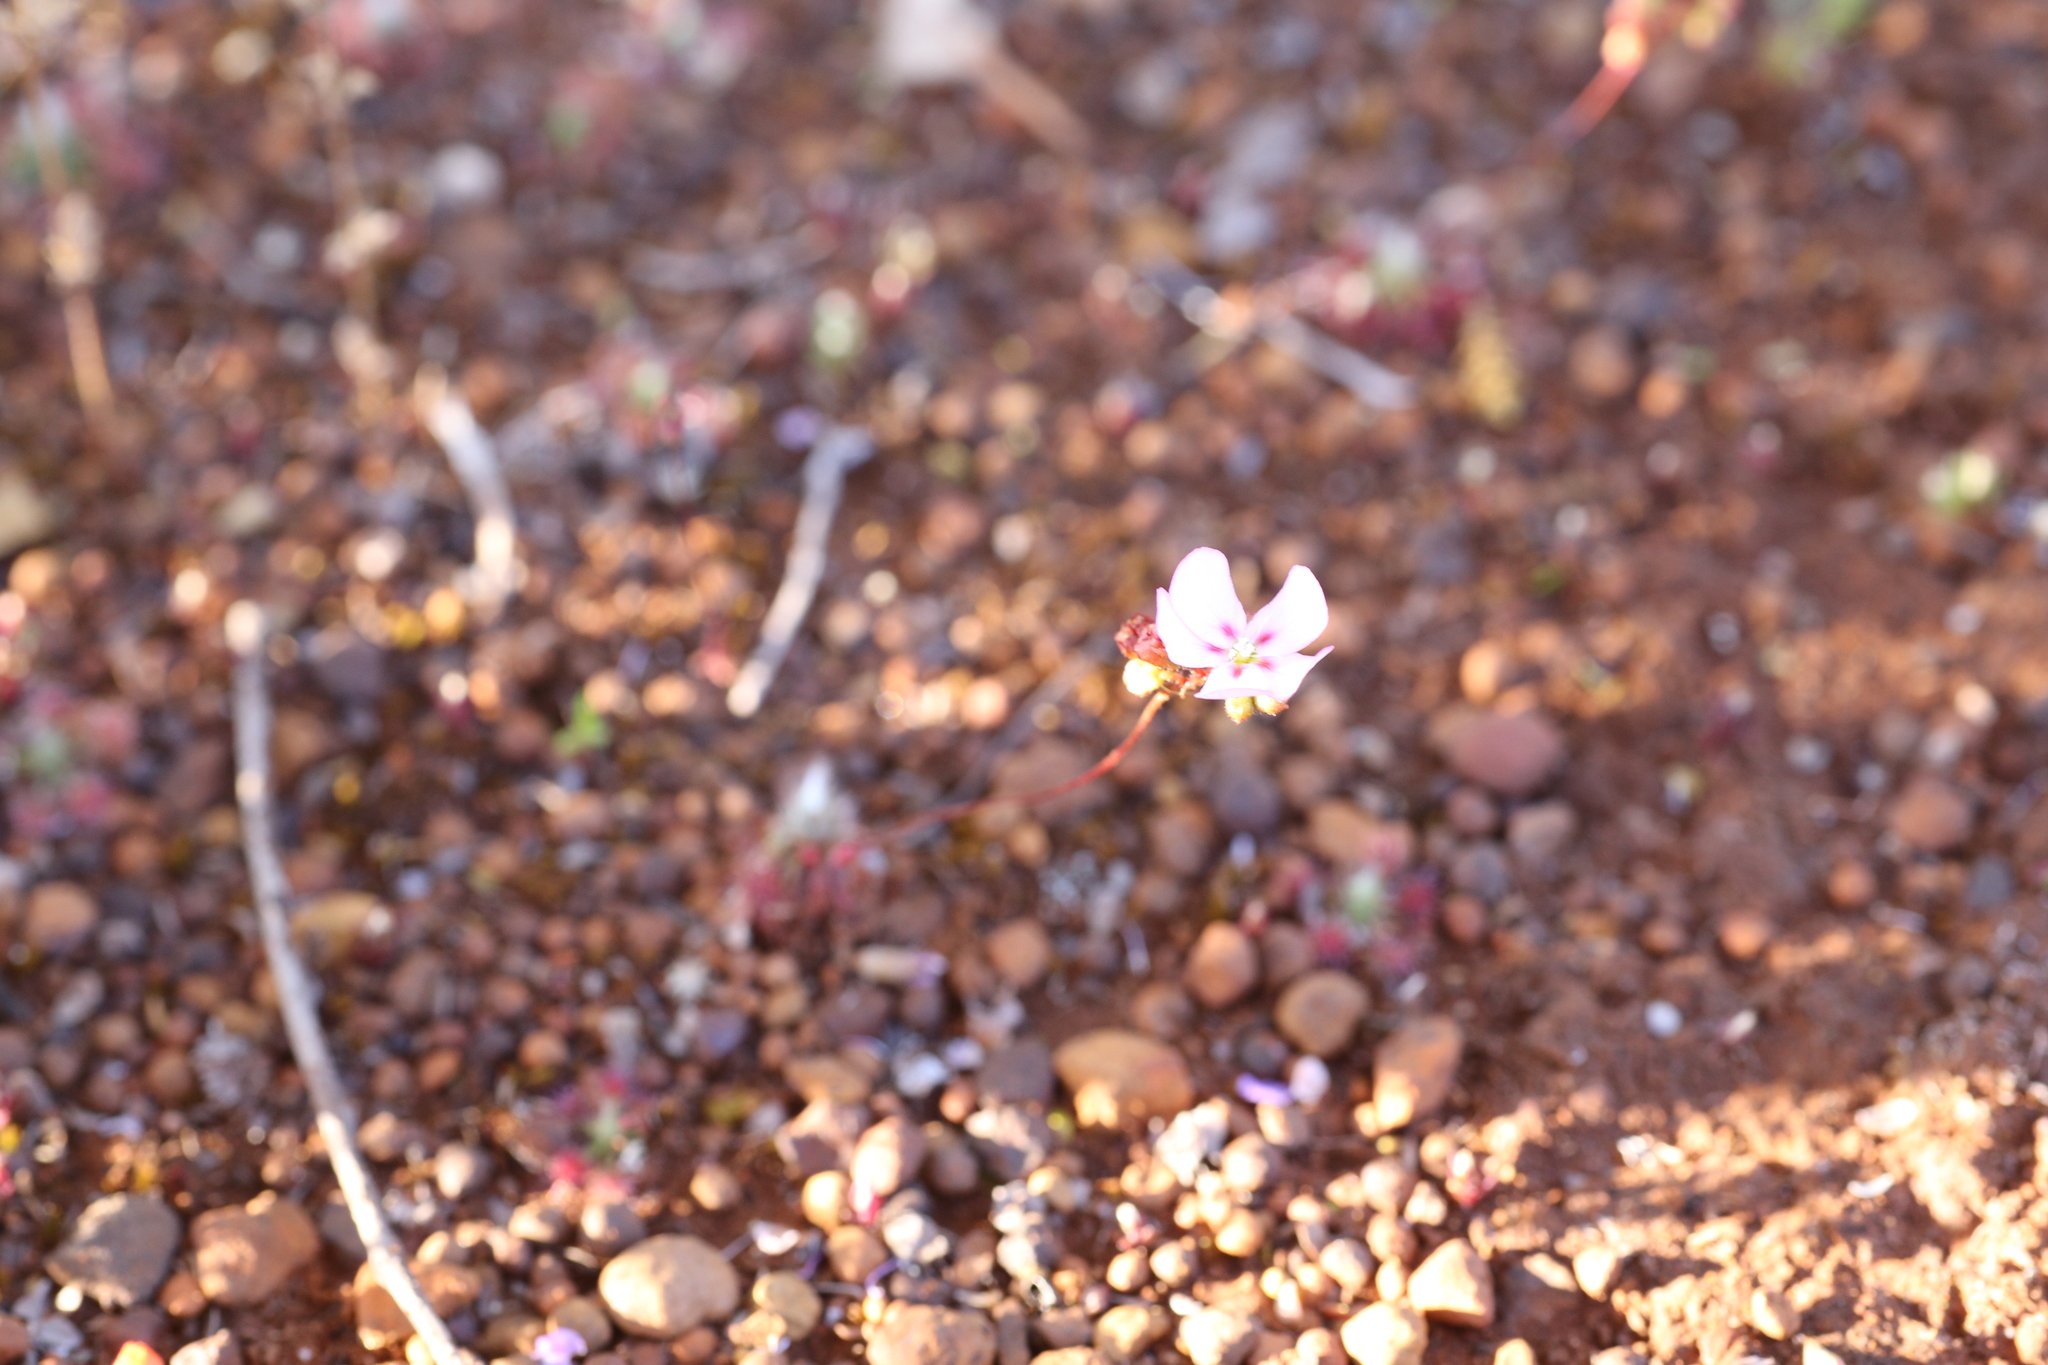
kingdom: Plantae
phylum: Tracheophyta
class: Magnoliopsida
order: Caryophyllales
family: Droseraceae
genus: Drosera
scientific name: Drosera spilos
